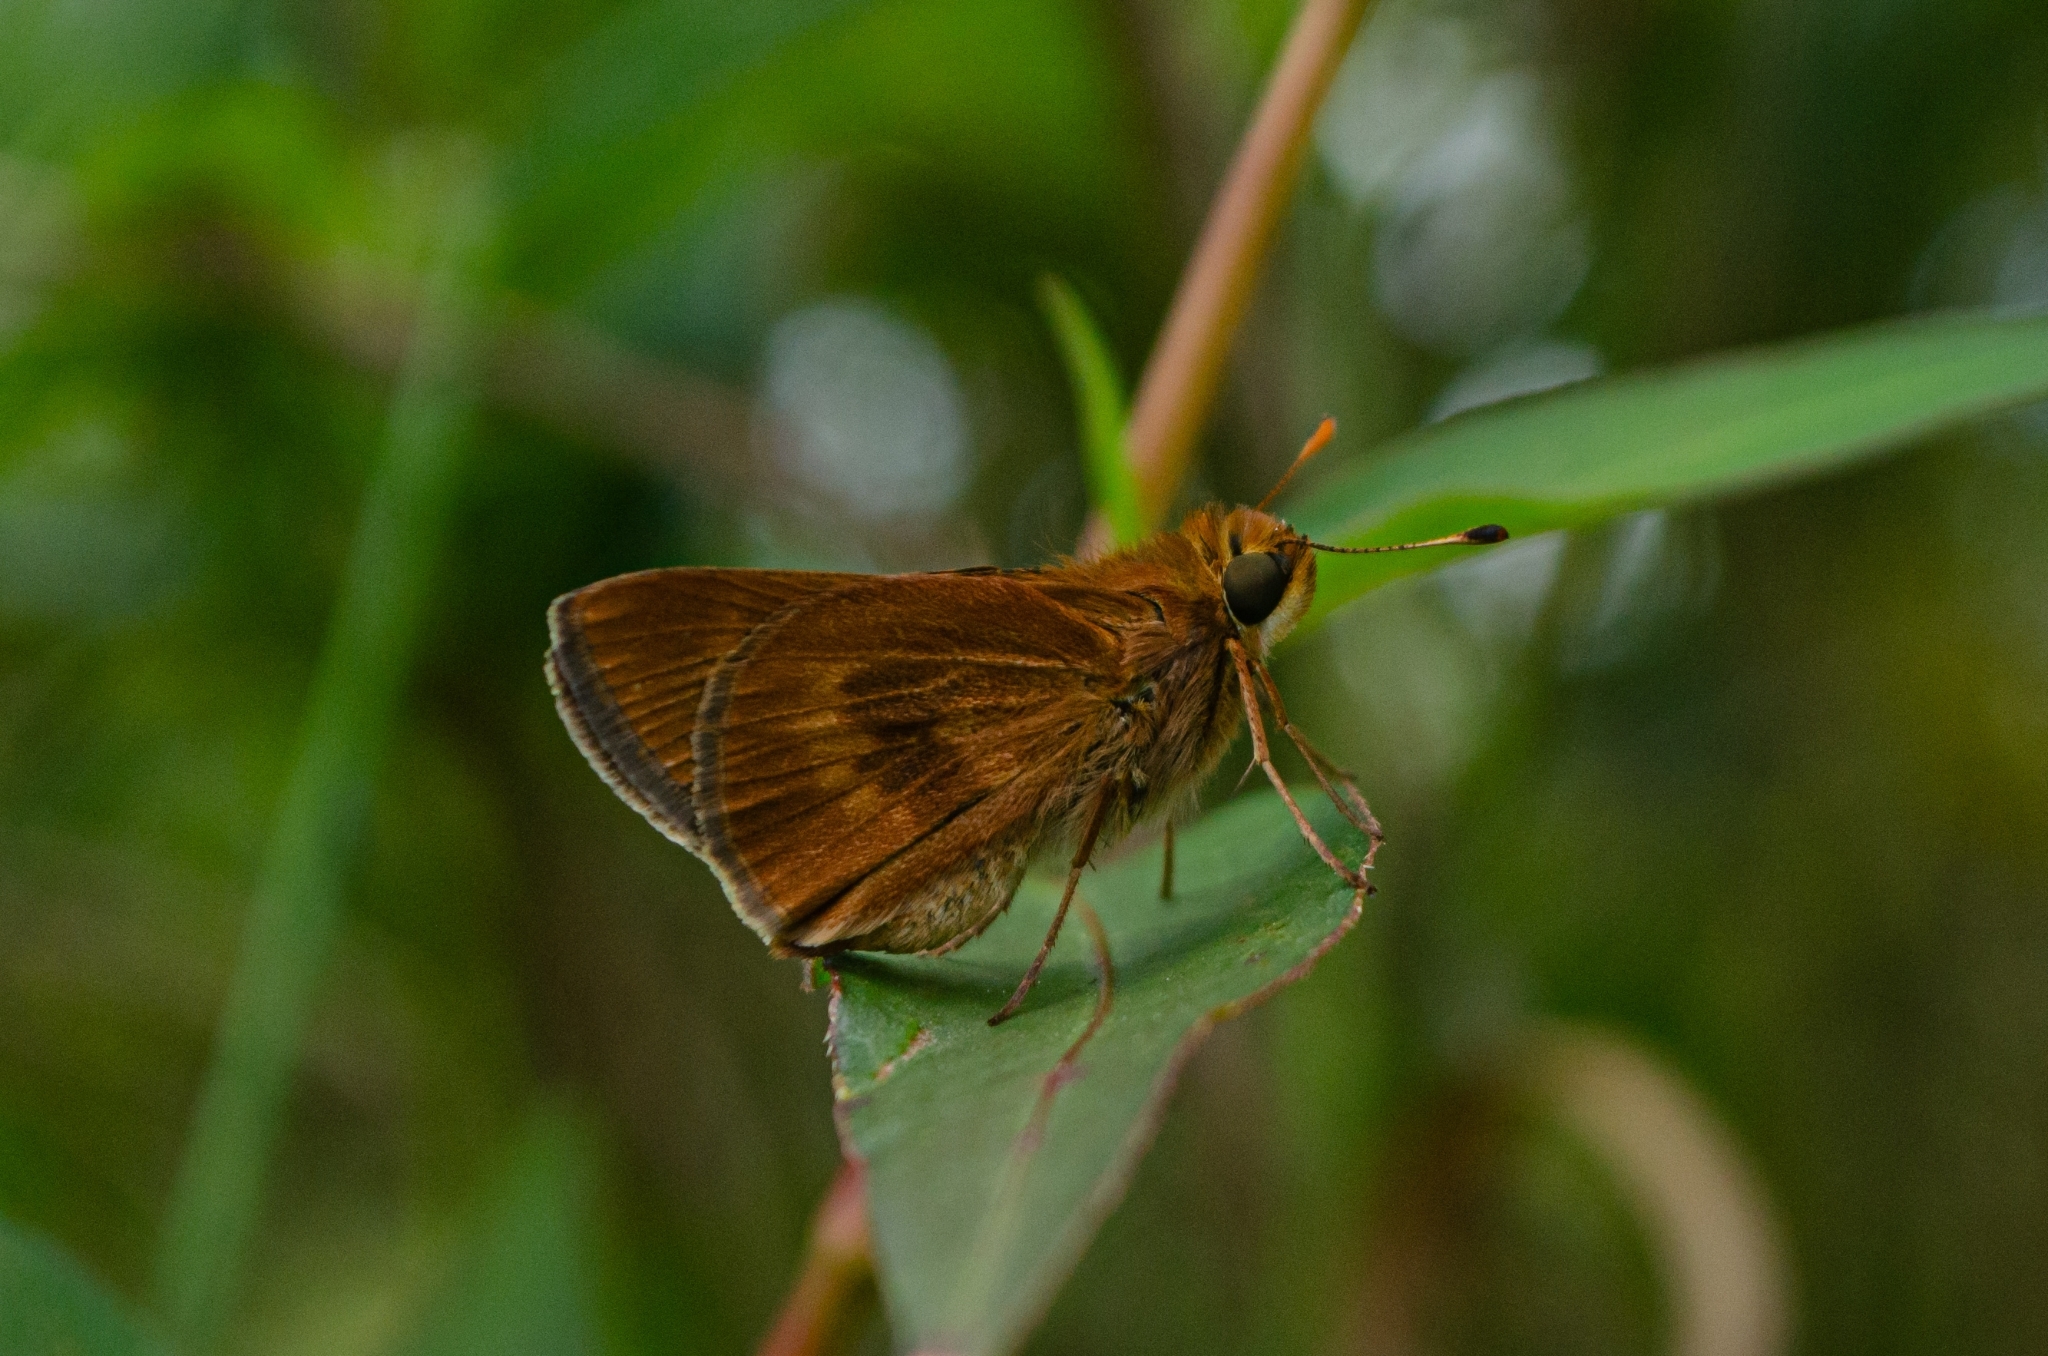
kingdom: Animalia
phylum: Arthropoda
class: Insecta
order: Lepidoptera
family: Hesperiidae
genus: Conga
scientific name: Conga iheringii
